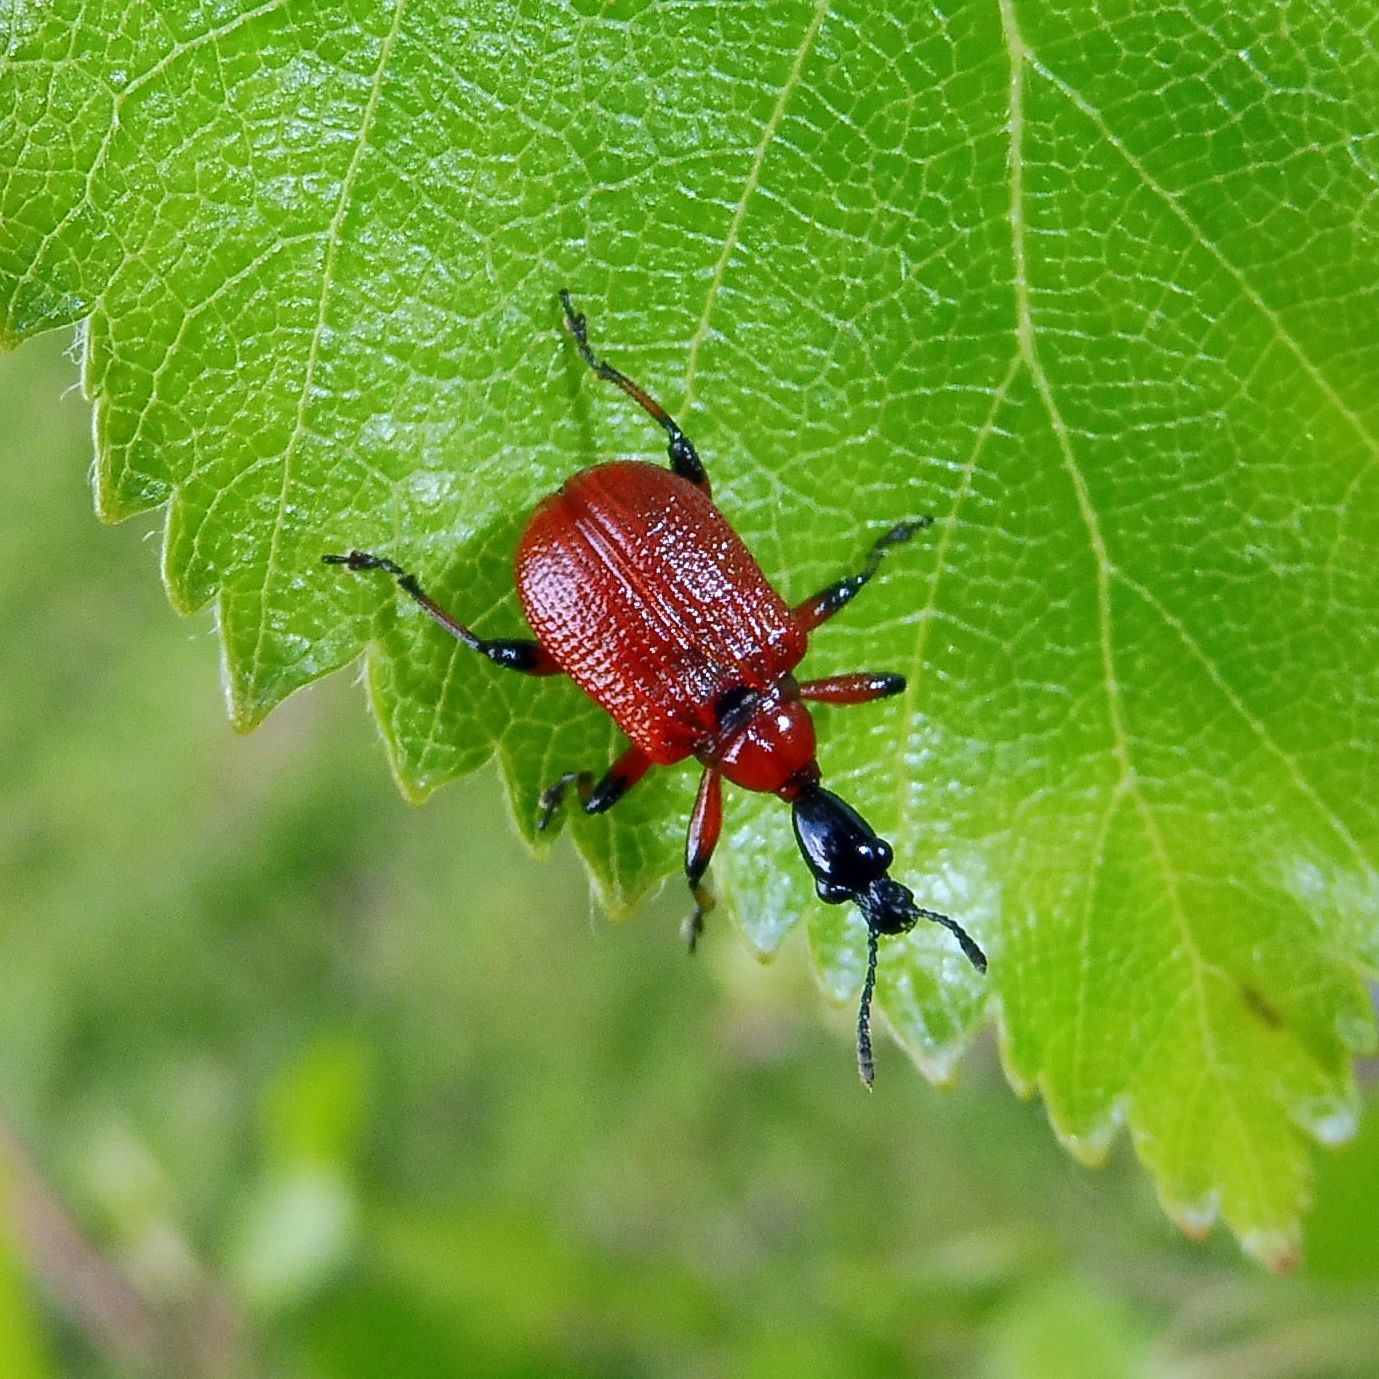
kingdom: Animalia
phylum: Arthropoda
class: Insecta
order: Coleoptera
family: Attelabidae
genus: Apoderus
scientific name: Apoderus coryli
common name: Hazel leaf roller
